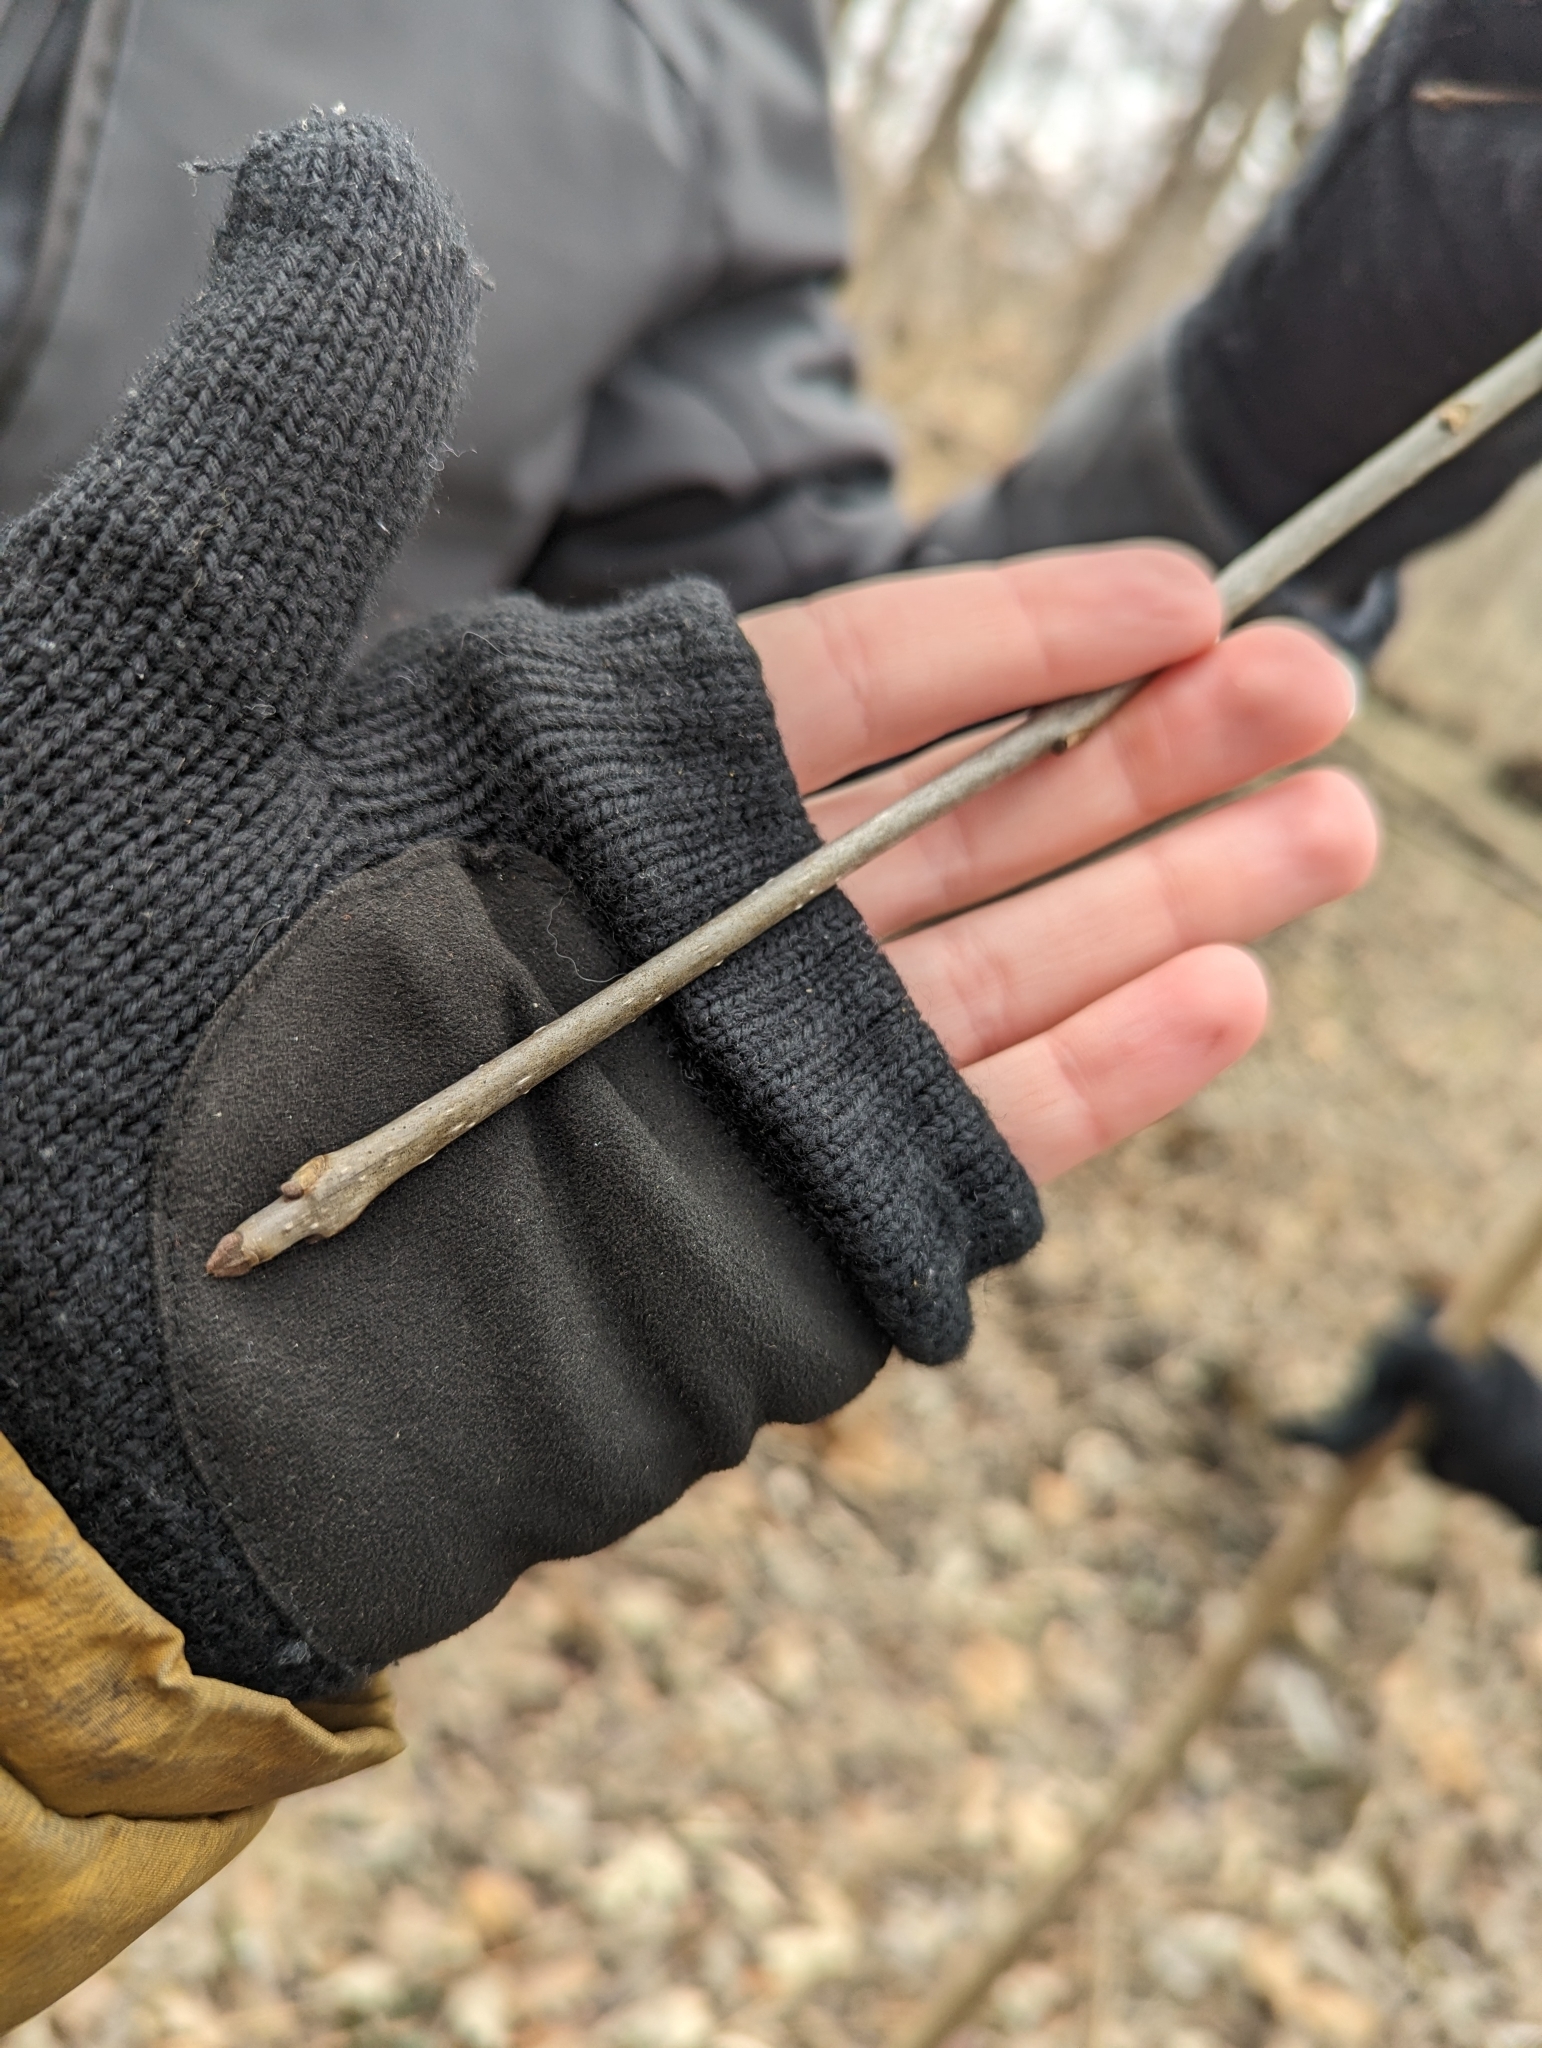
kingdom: Plantae
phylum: Tracheophyta
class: Magnoliopsida
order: Lamiales
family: Oleaceae
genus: Fraxinus
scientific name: Fraxinus nigra
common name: Black ash
